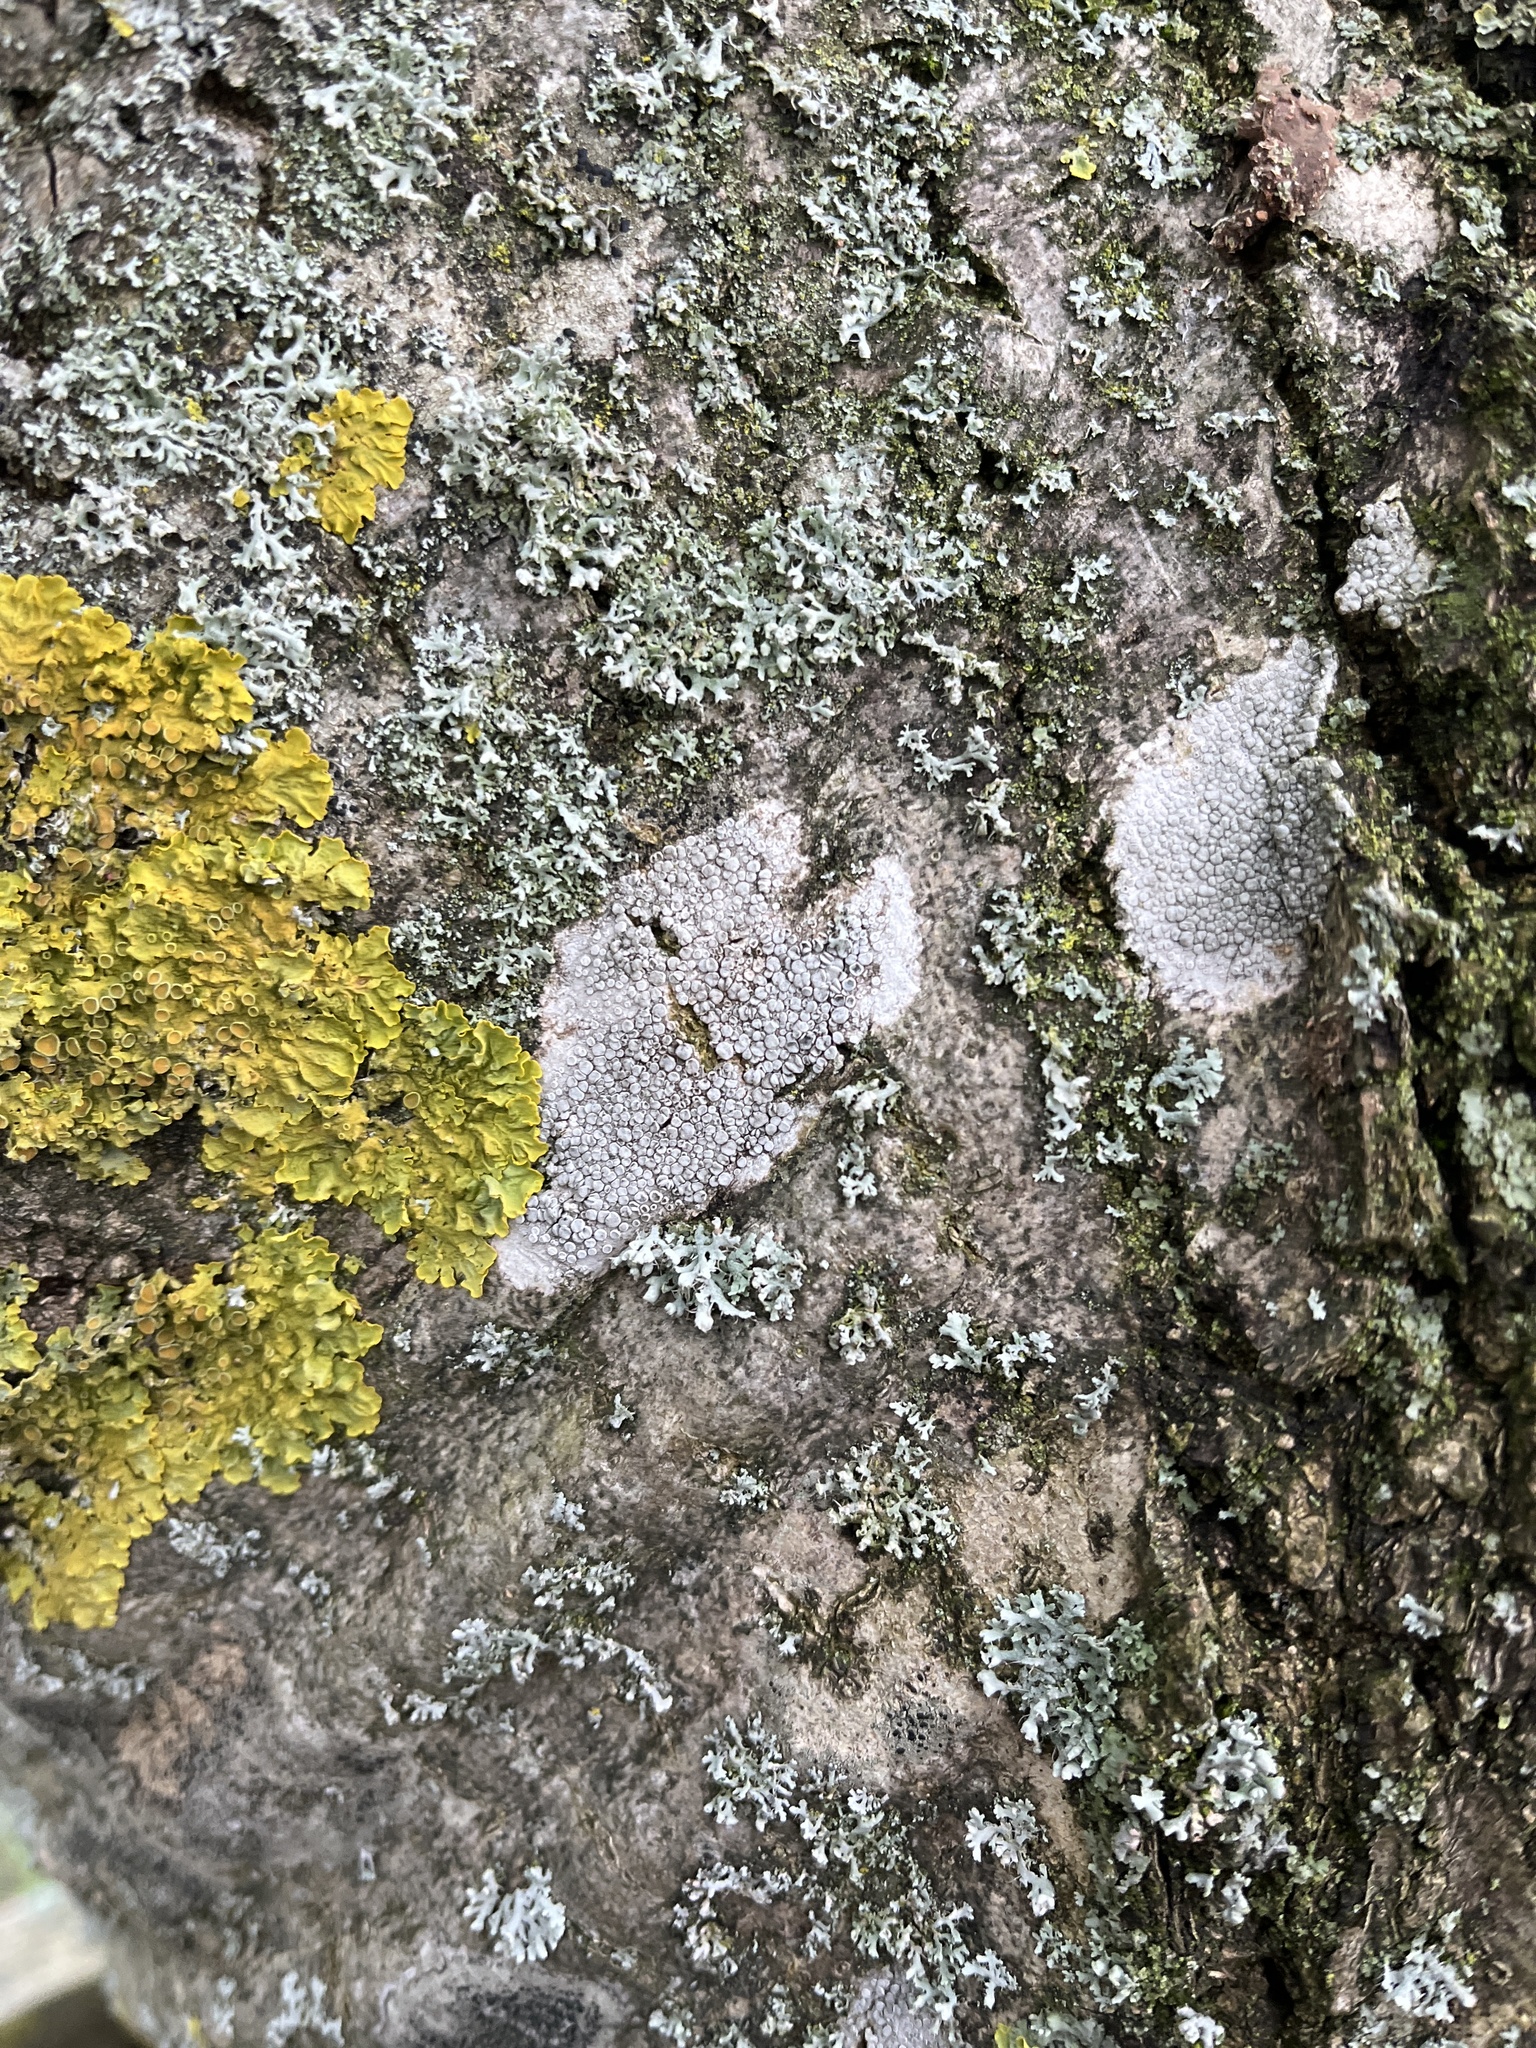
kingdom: Fungi
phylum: Ascomycota
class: Lecanoromycetes
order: Lecanorales
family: Lecanoraceae
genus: Glaucomaria
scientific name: Glaucomaria carpinea
